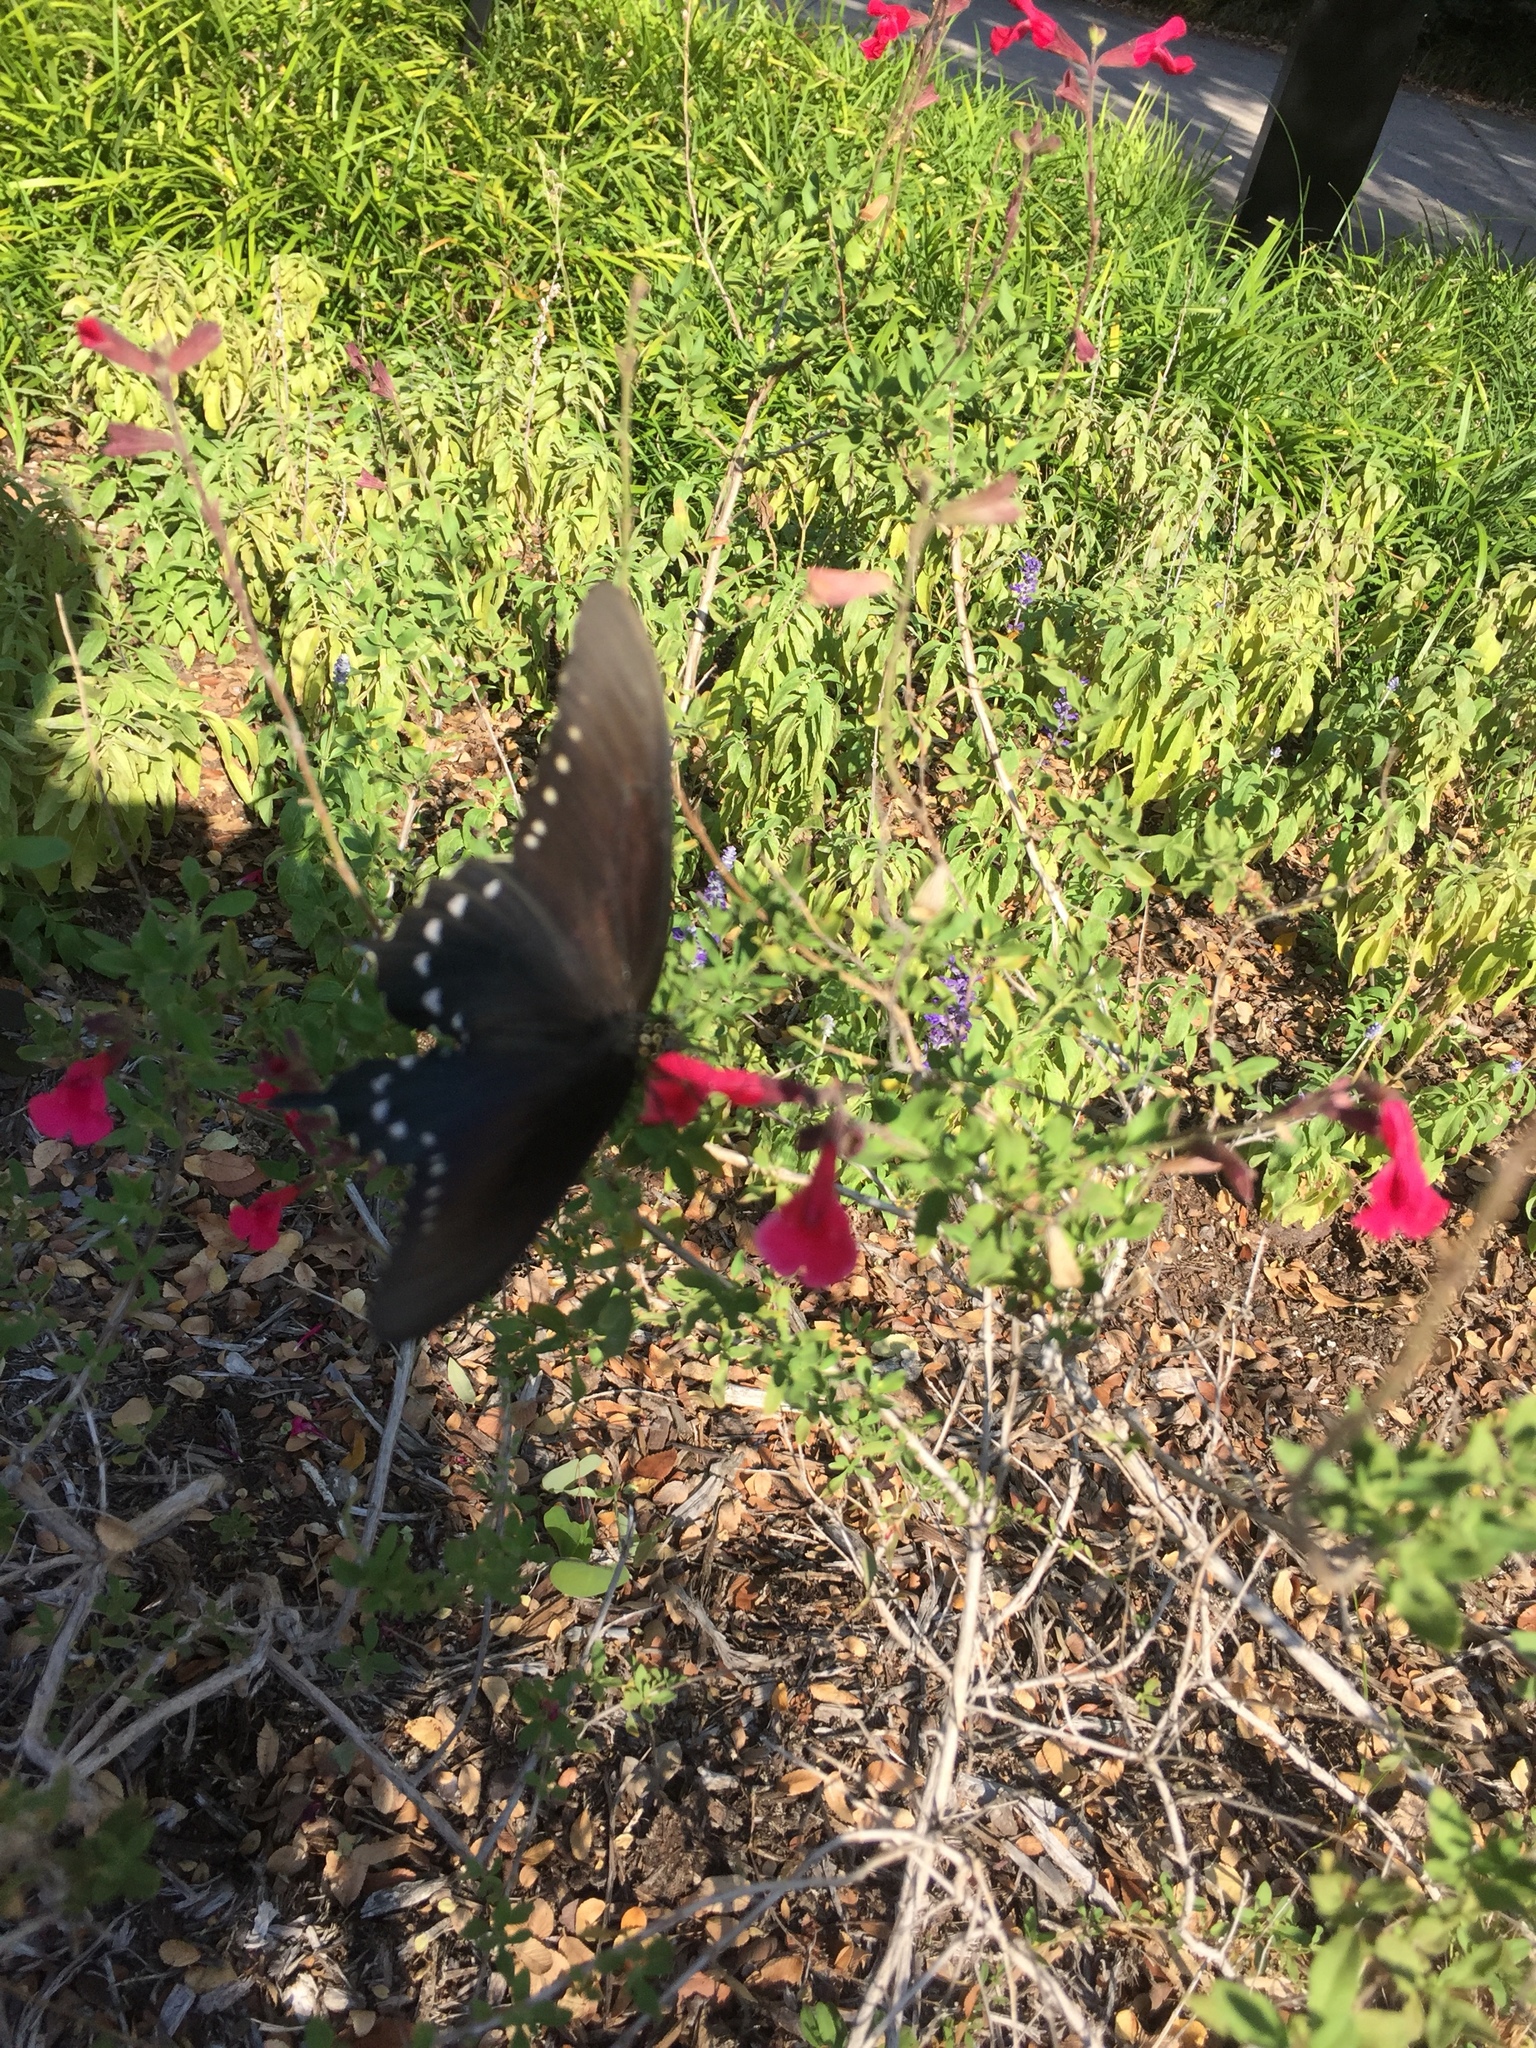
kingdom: Animalia
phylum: Arthropoda
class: Insecta
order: Lepidoptera
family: Papilionidae
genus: Battus
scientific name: Battus philenor
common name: Pipevine swallowtail
